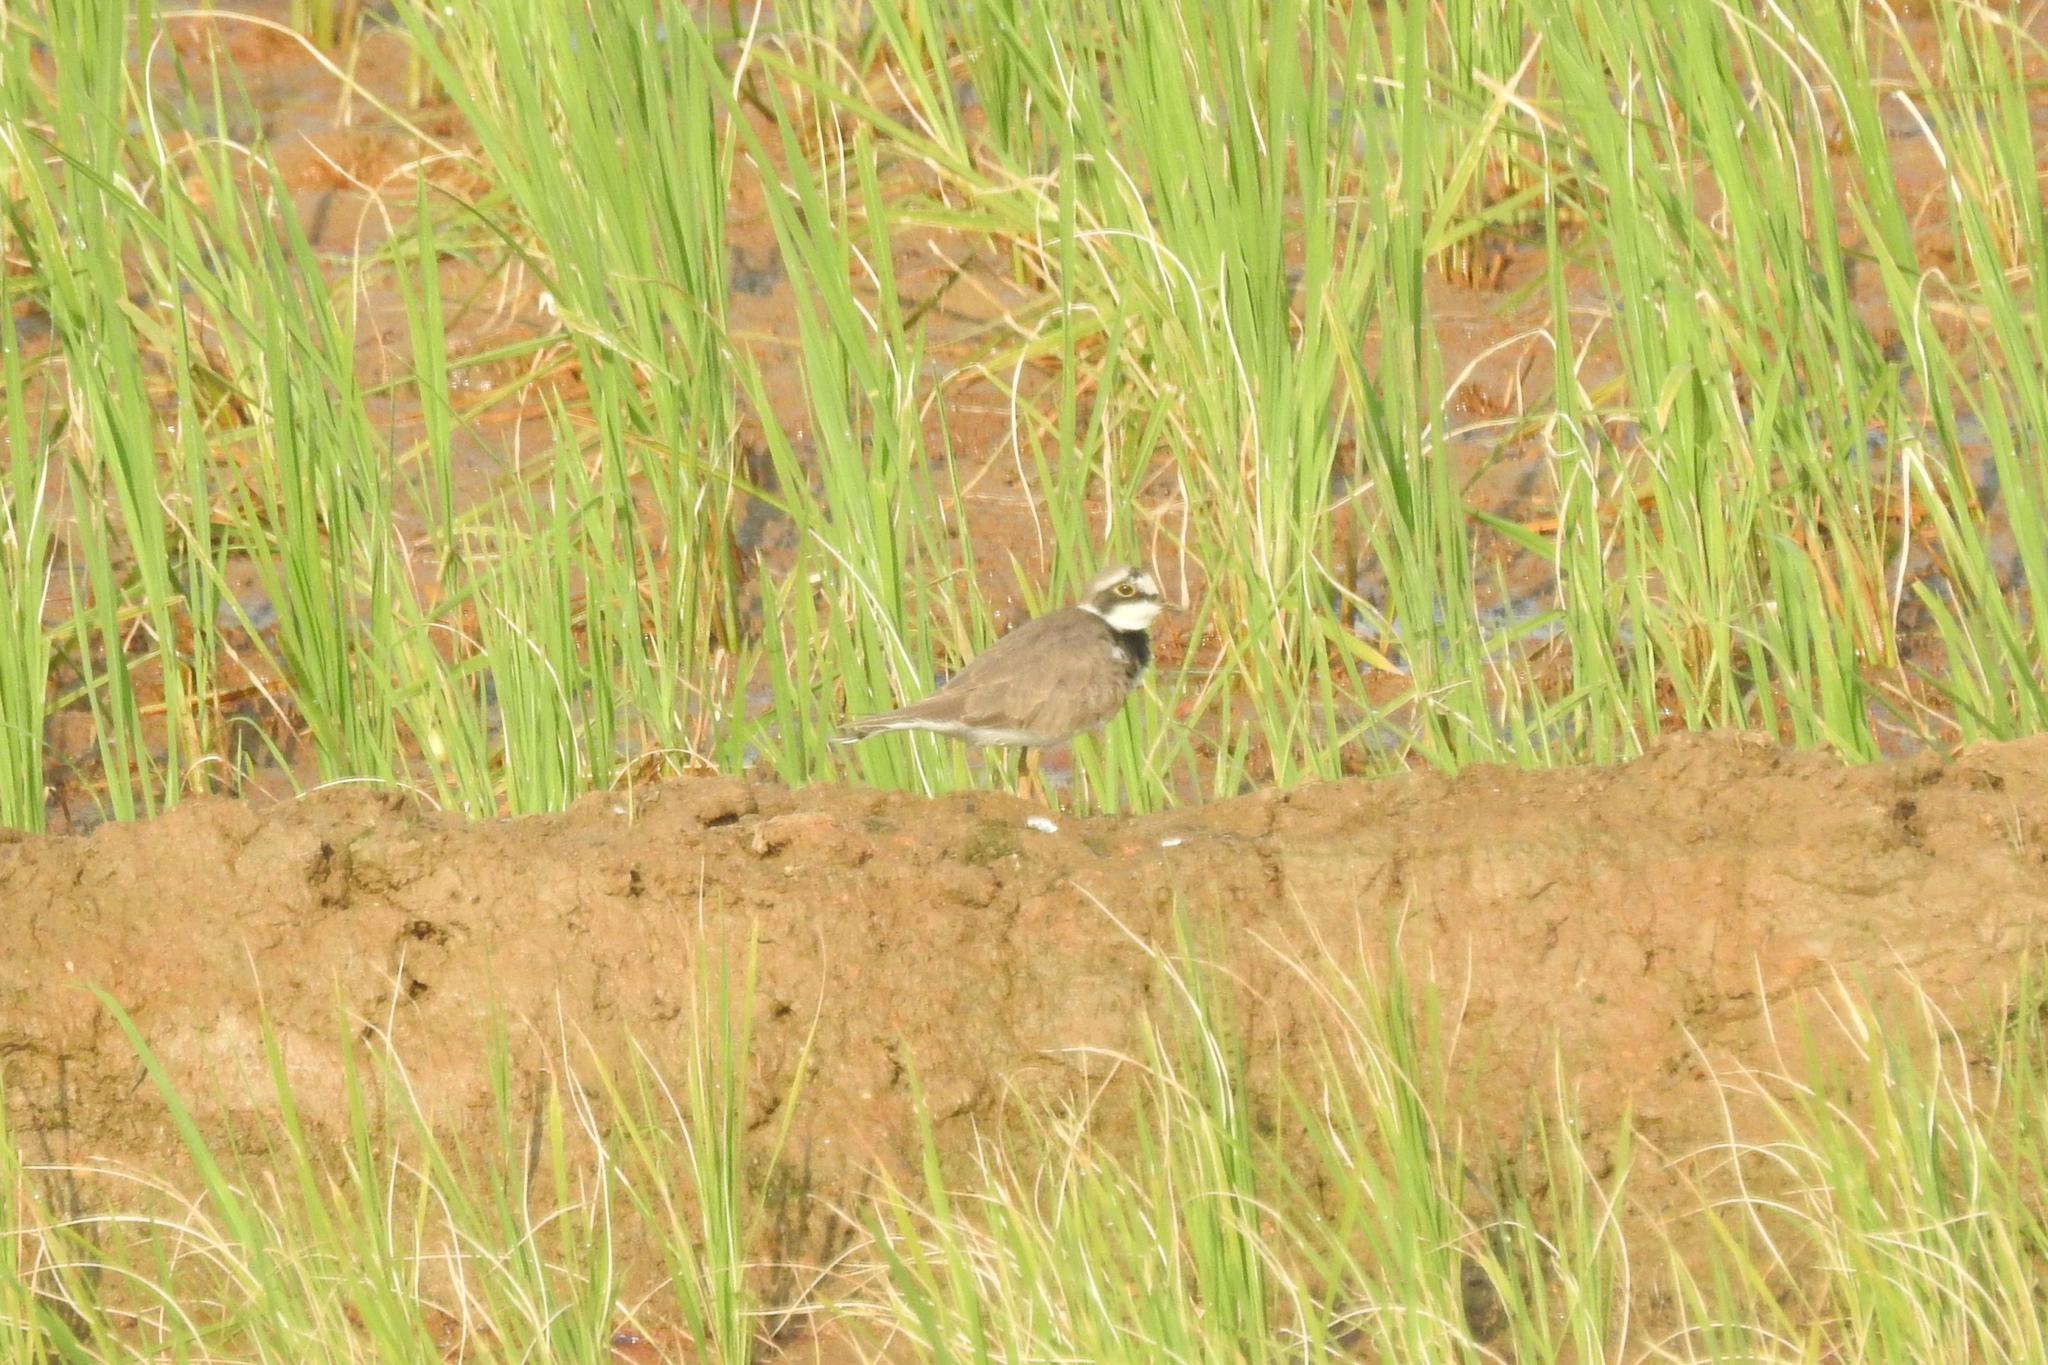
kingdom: Animalia
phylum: Chordata
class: Aves
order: Charadriiformes
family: Charadriidae
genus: Charadrius
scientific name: Charadrius dubius
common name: Little ringed plover
